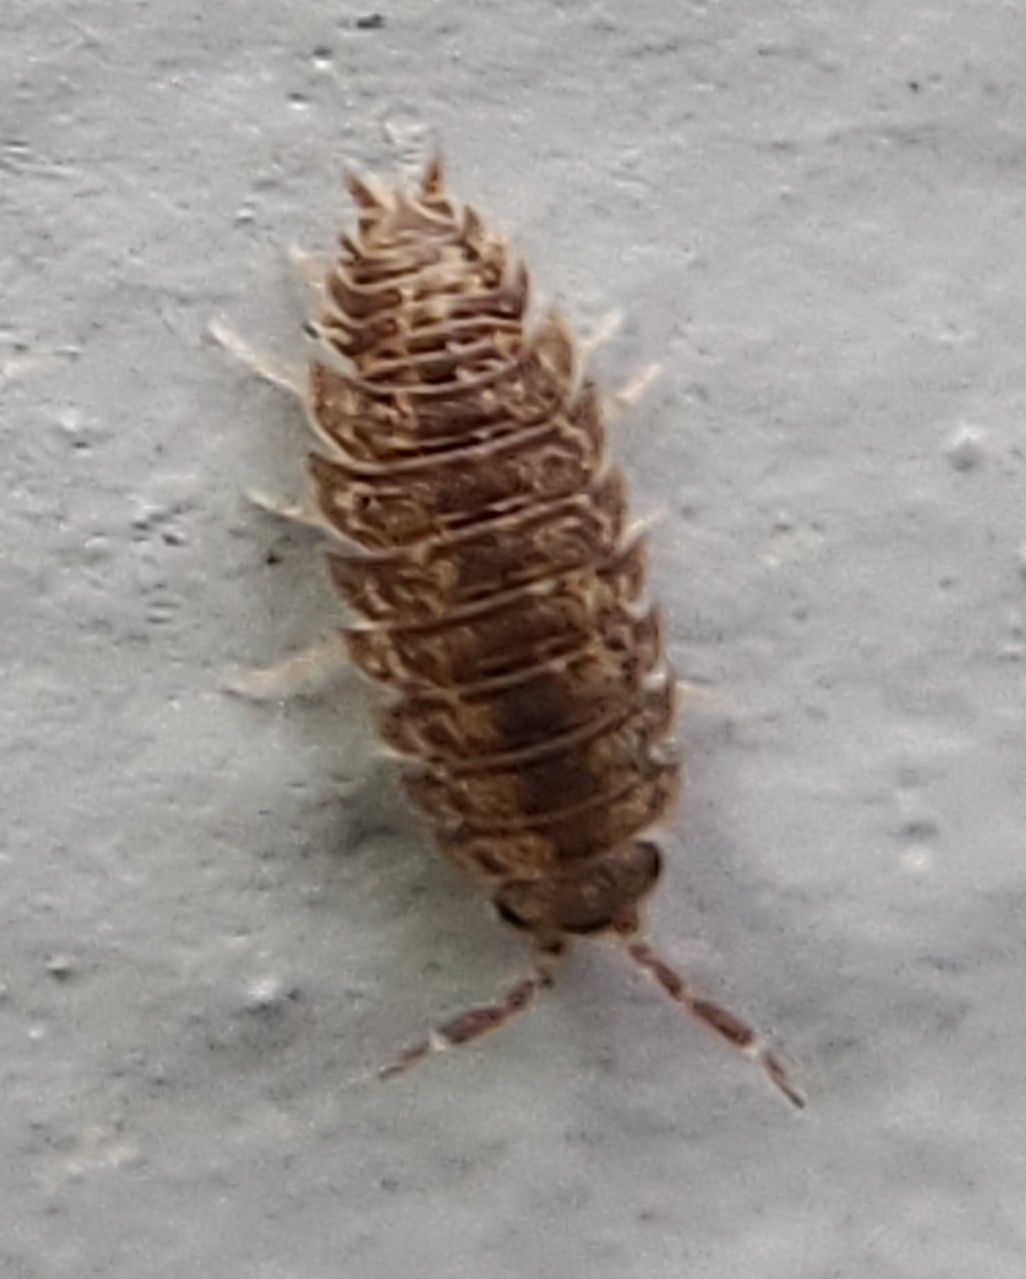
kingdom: Animalia
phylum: Arthropoda
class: Malacostraca
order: Isopoda
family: Porcellionidae
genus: Porcellio
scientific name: Porcellio scaber
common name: Common rough woodlouse
